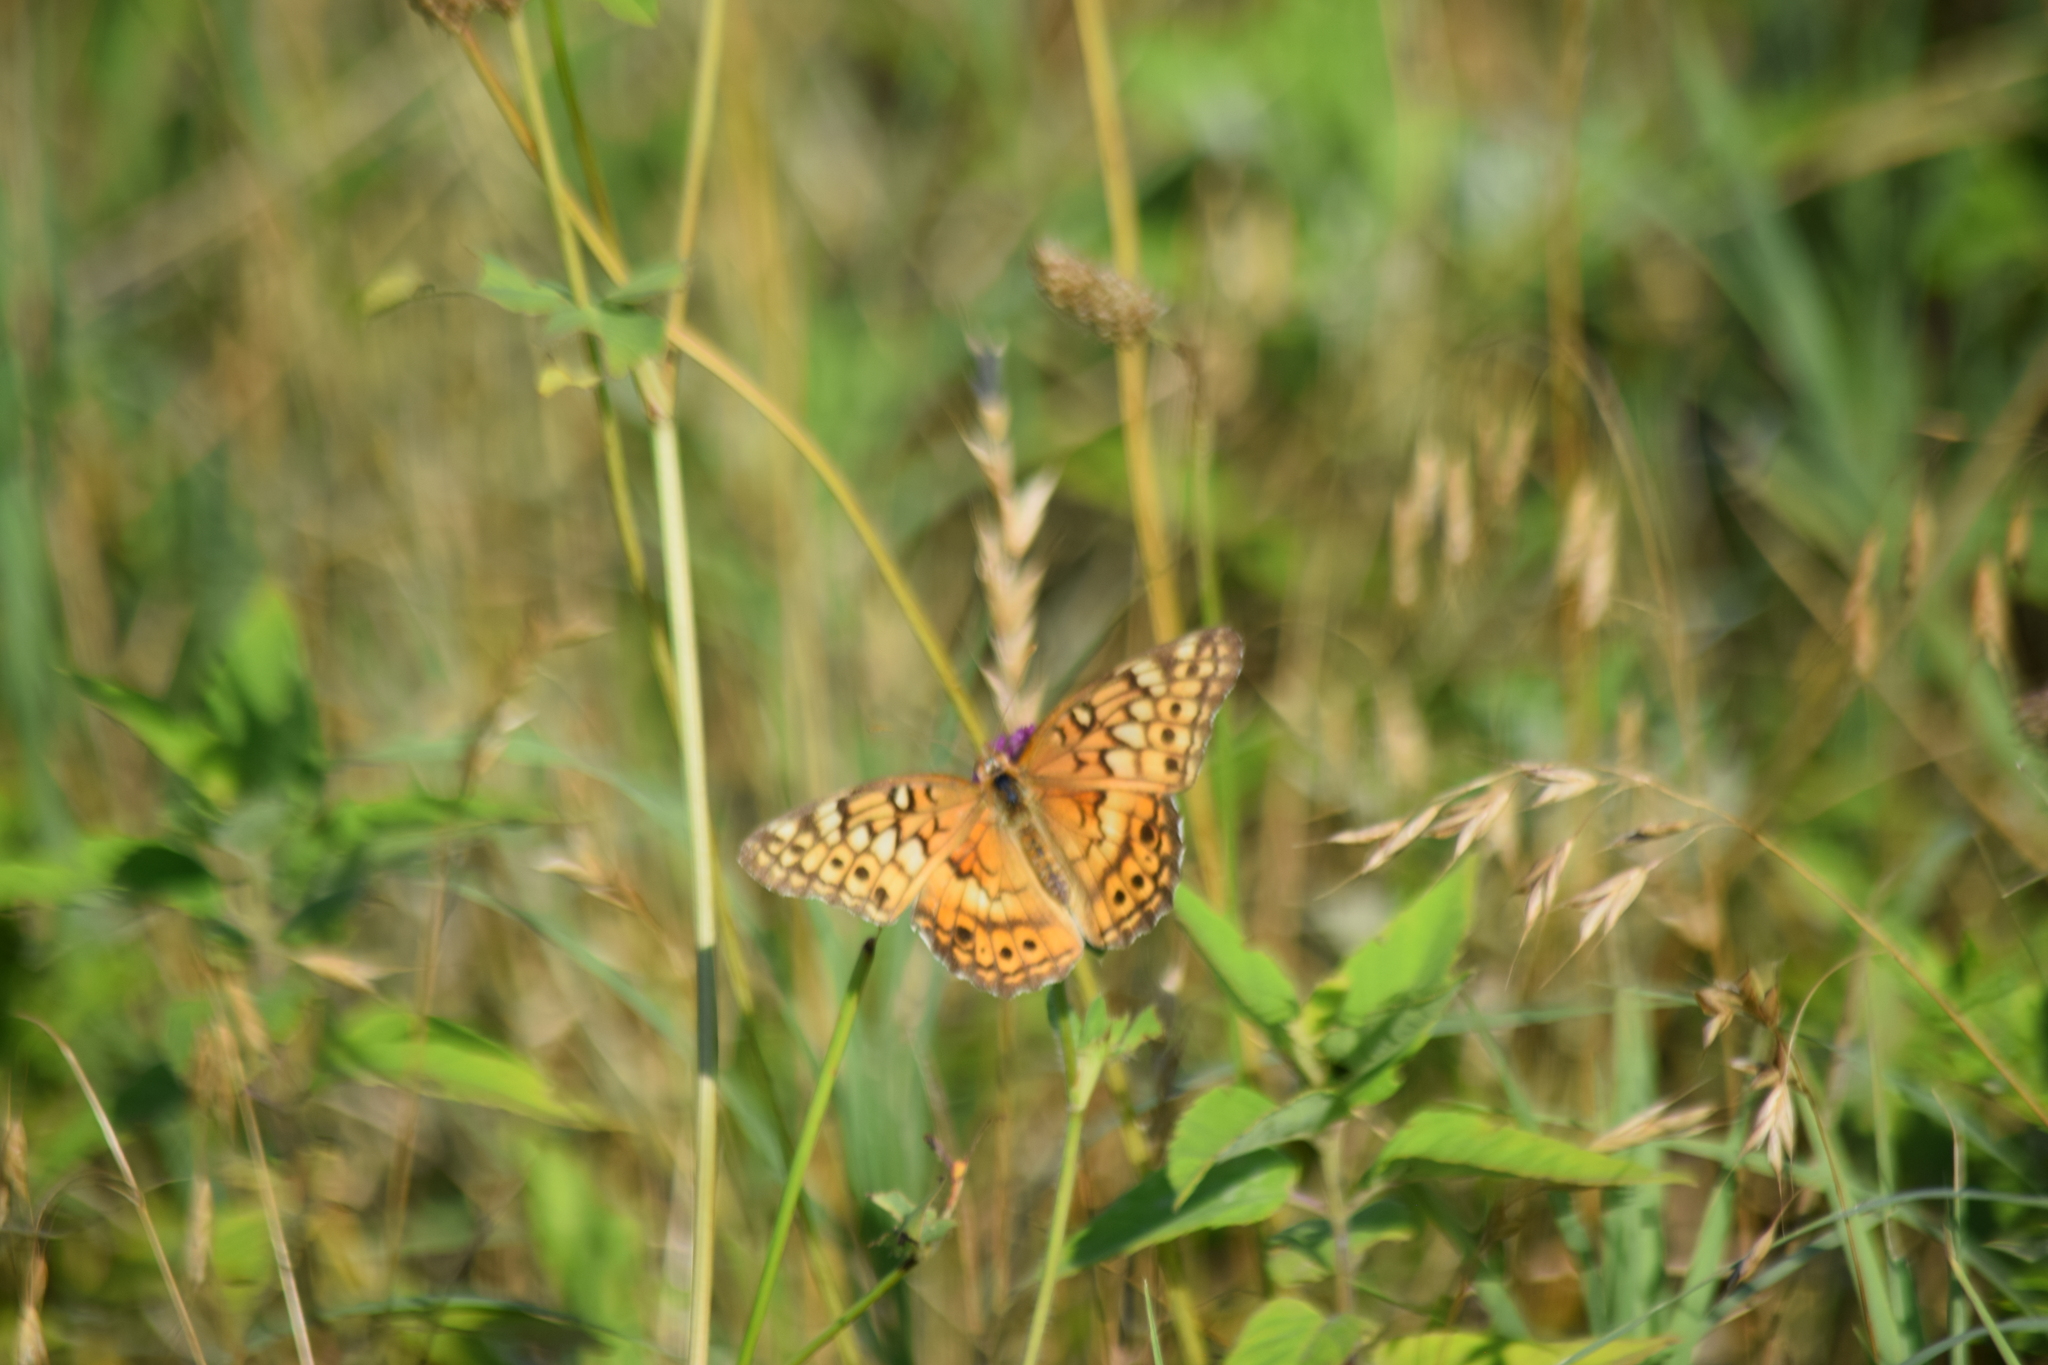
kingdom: Animalia
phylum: Arthropoda
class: Insecta
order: Lepidoptera
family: Nymphalidae
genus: Euptoieta
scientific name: Euptoieta claudia
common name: Variegated fritillary
